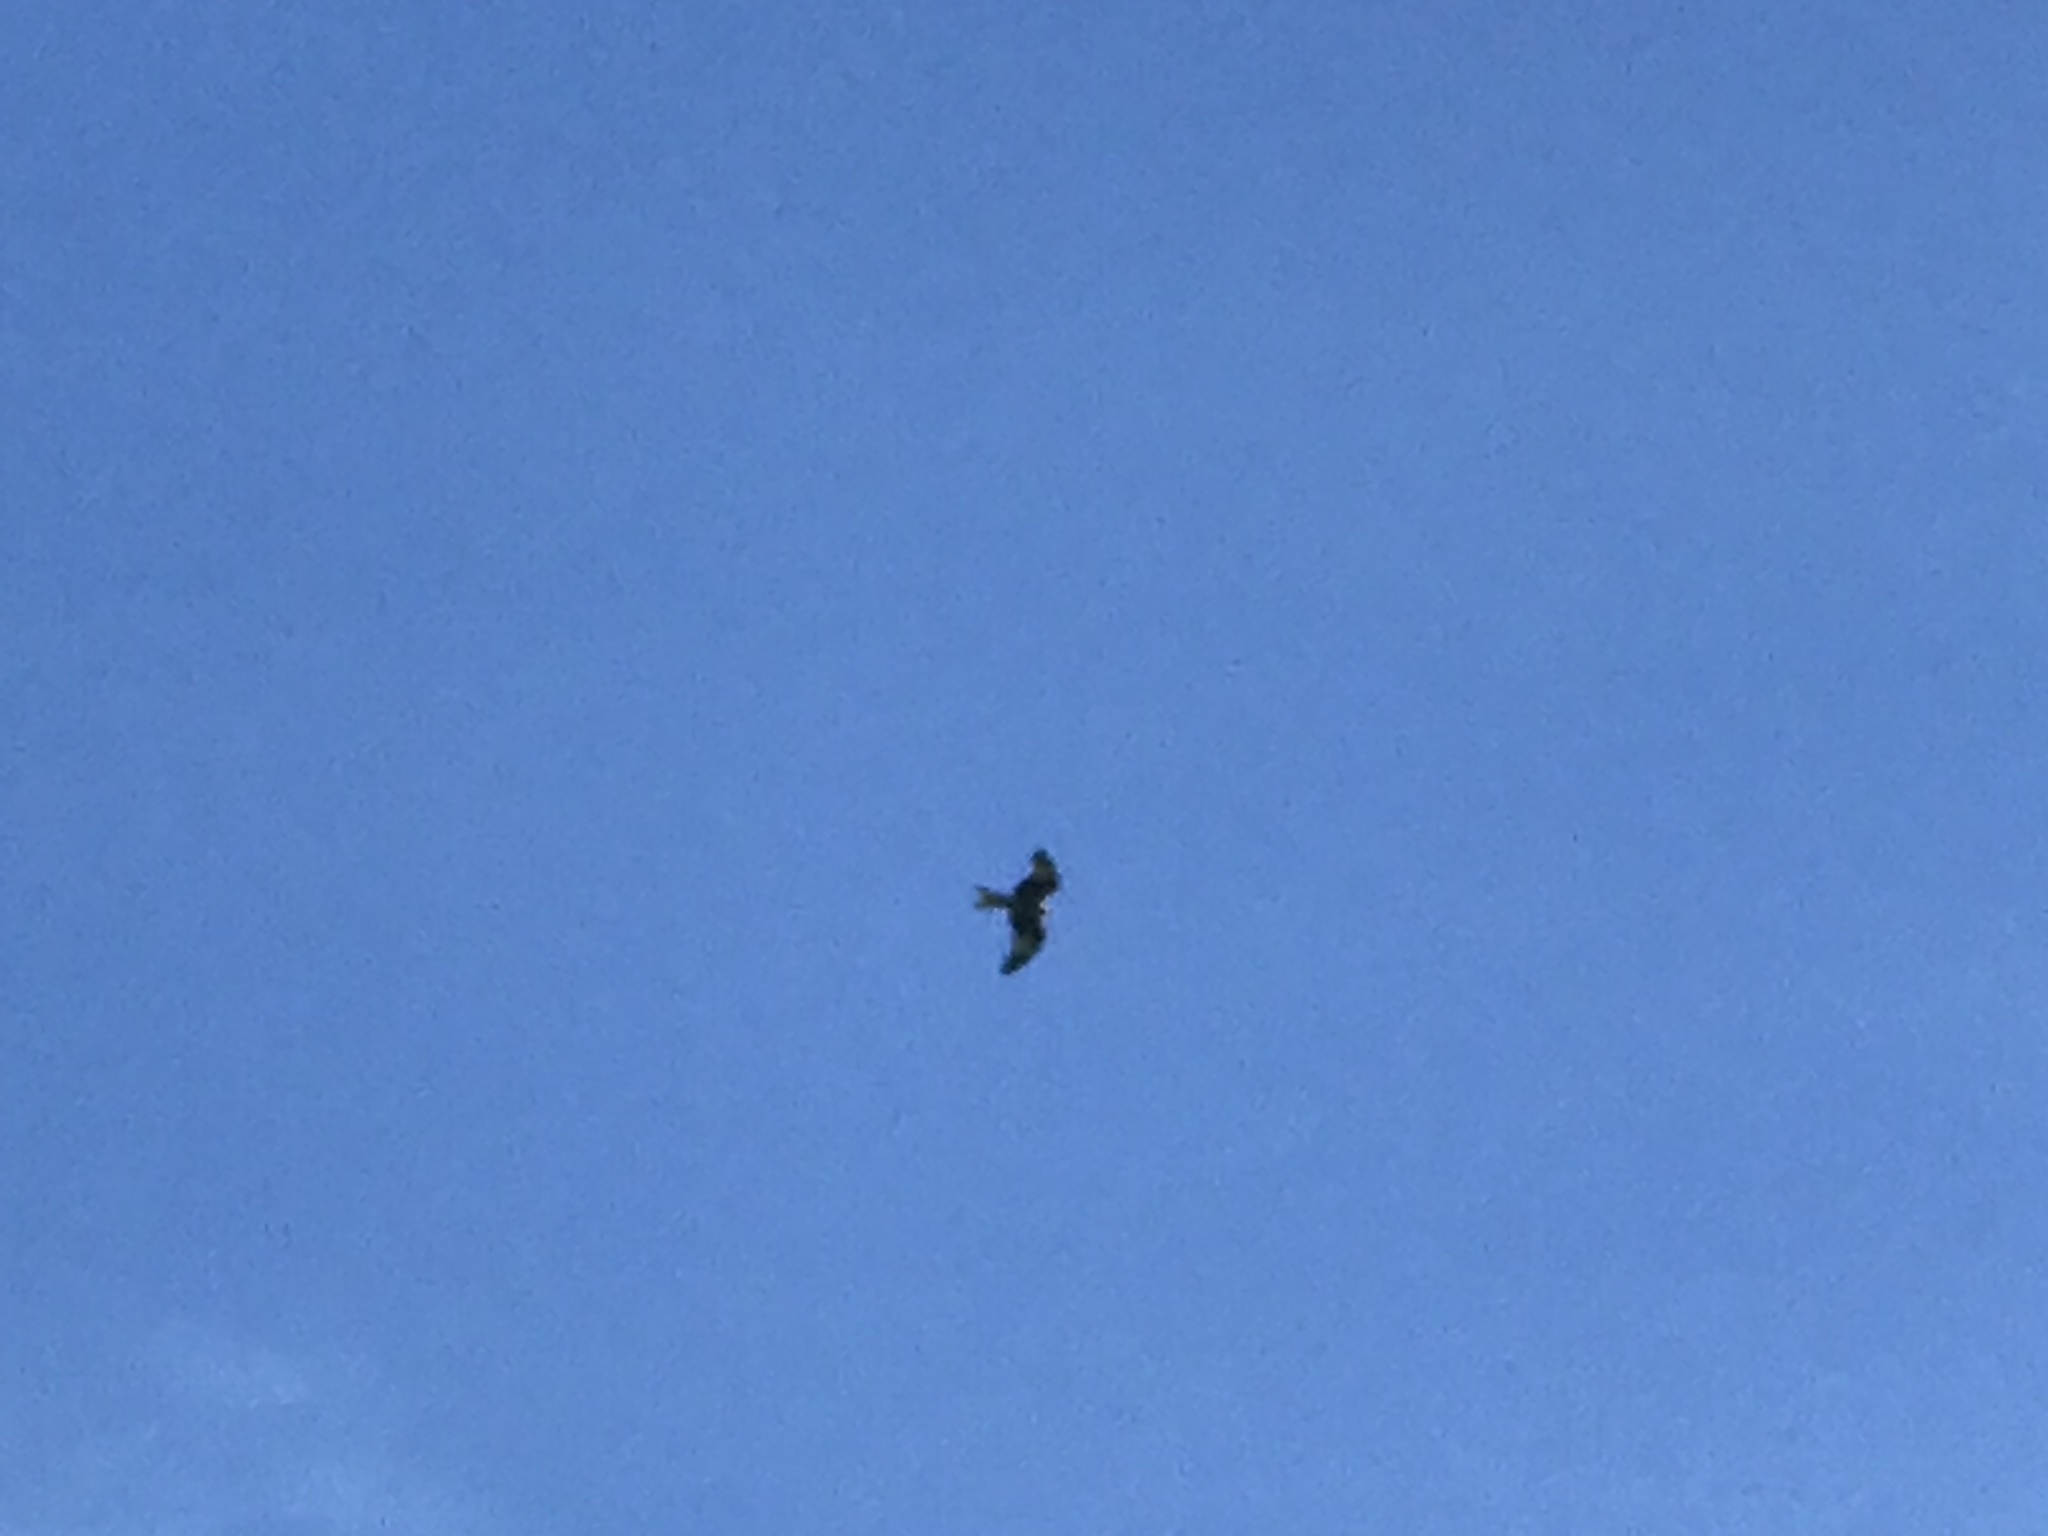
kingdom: Animalia
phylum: Chordata
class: Aves
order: Accipitriformes
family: Accipitridae
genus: Milvus
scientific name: Milvus milvus
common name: Red kite
